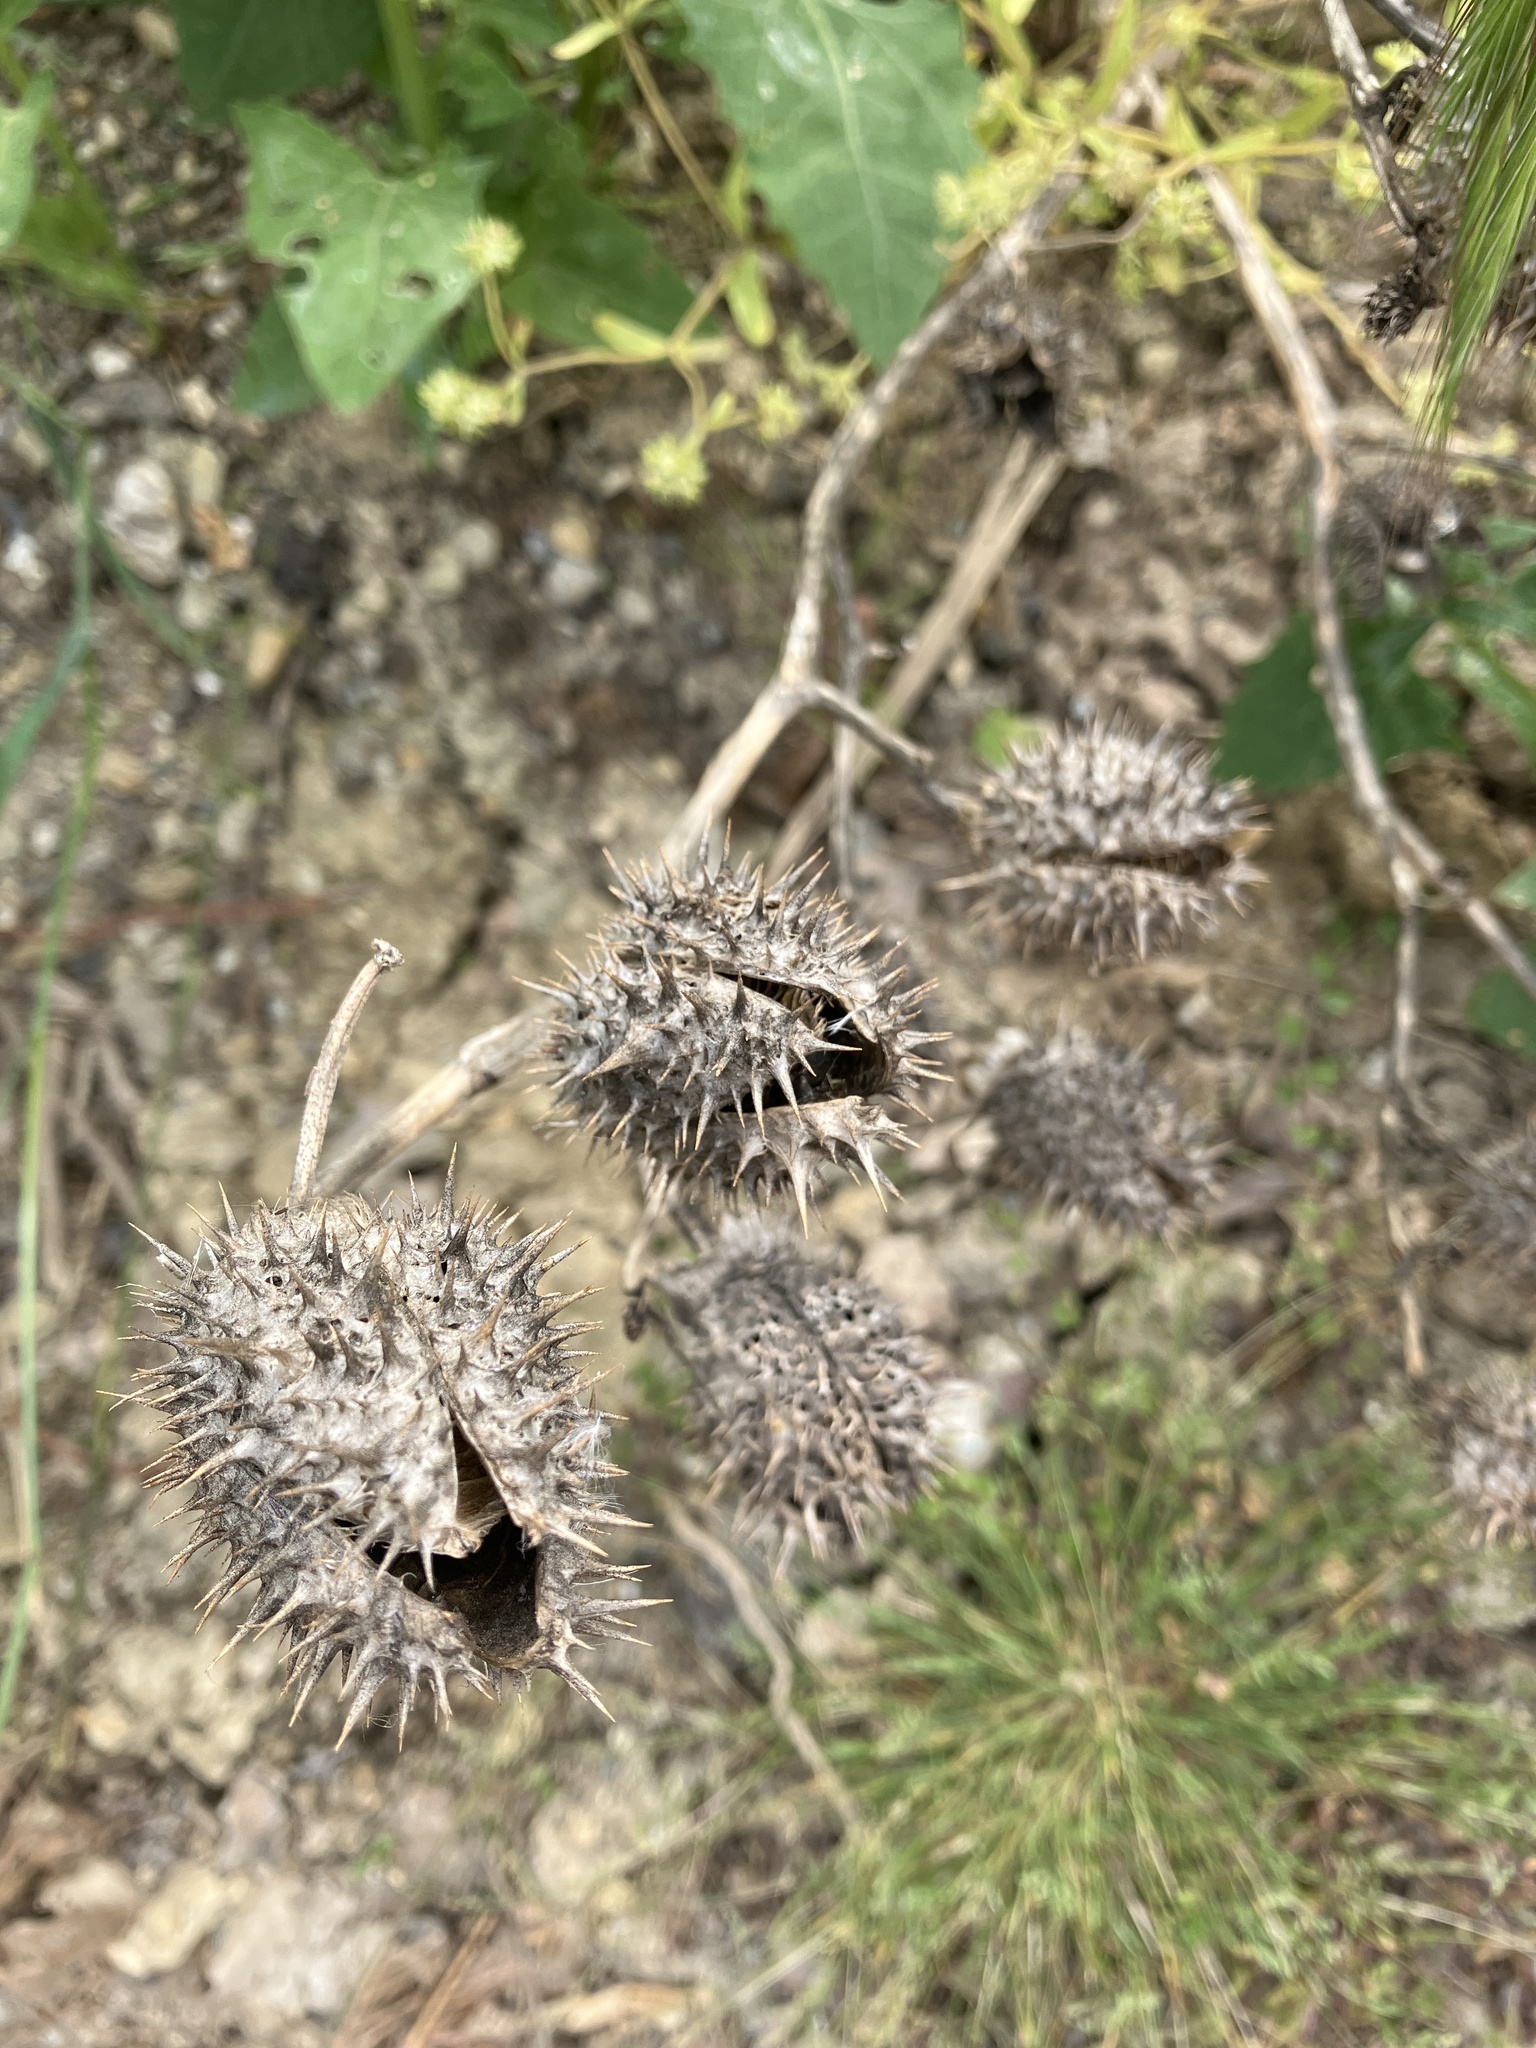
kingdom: Plantae
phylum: Tracheophyta
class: Magnoliopsida
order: Solanales
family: Solanaceae
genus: Datura
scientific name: Datura stramonium
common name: Thorn-apple
